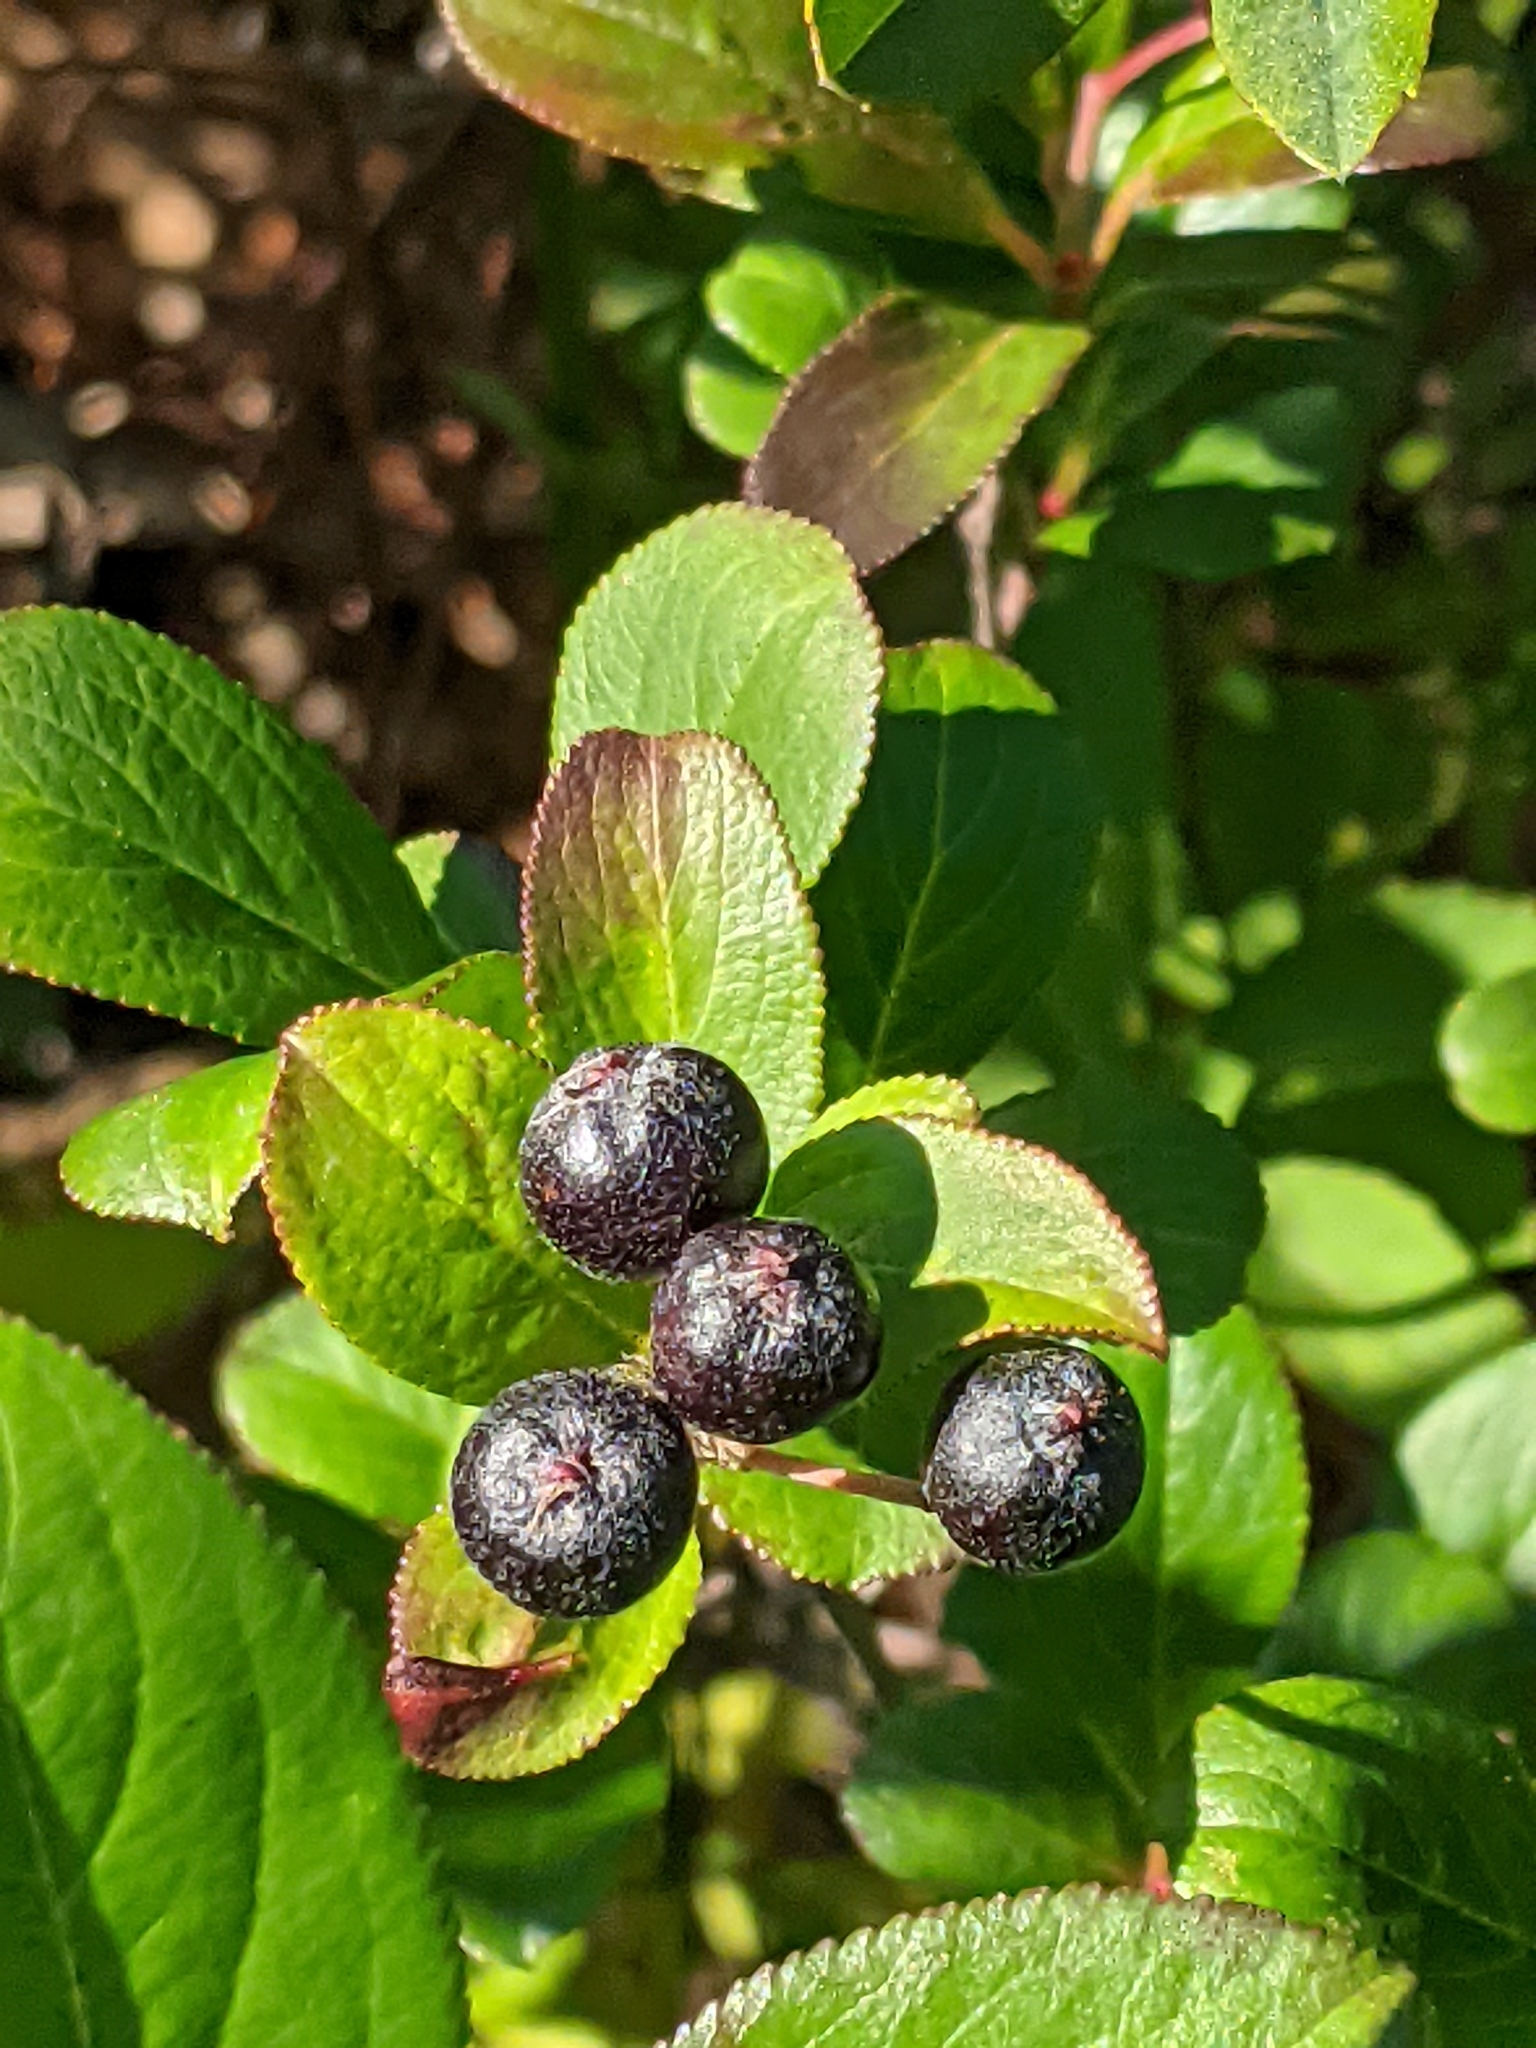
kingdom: Plantae
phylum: Tracheophyta
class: Magnoliopsida
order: Rosales
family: Rosaceae
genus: Aronia
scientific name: Aronia melanocarpa
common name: Black chokeberry
